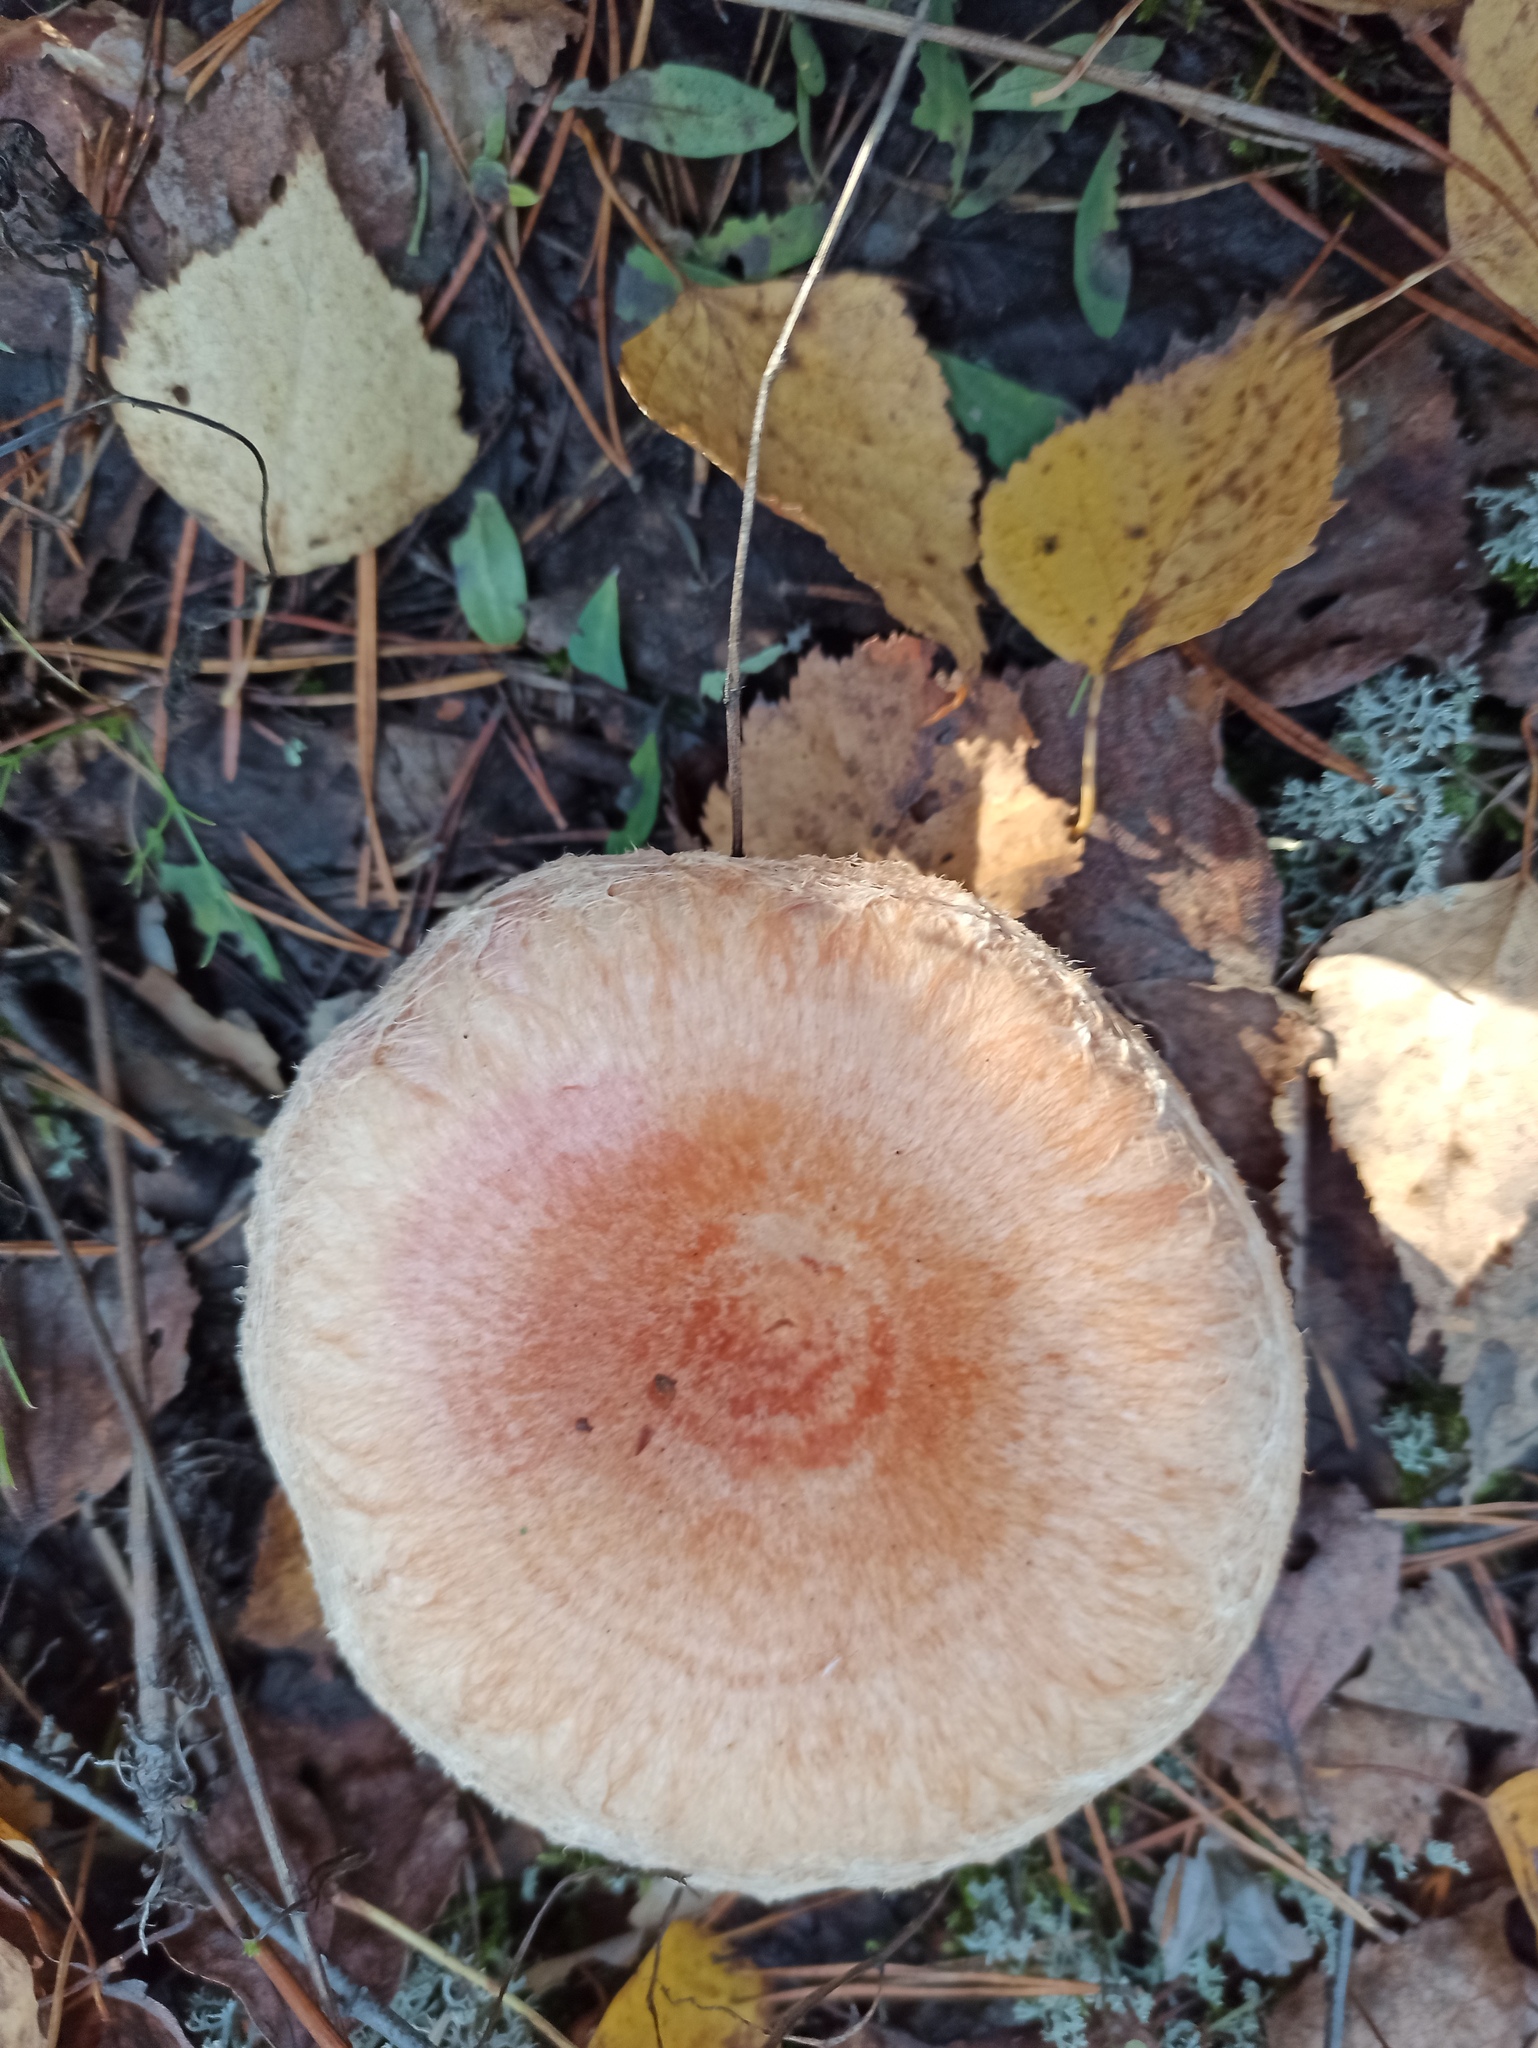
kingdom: Fungi
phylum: Basidiomycota
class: Agaricomycetes
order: Russulales
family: Russulaceae
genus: Lactarius
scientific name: Lactarius torminosus
